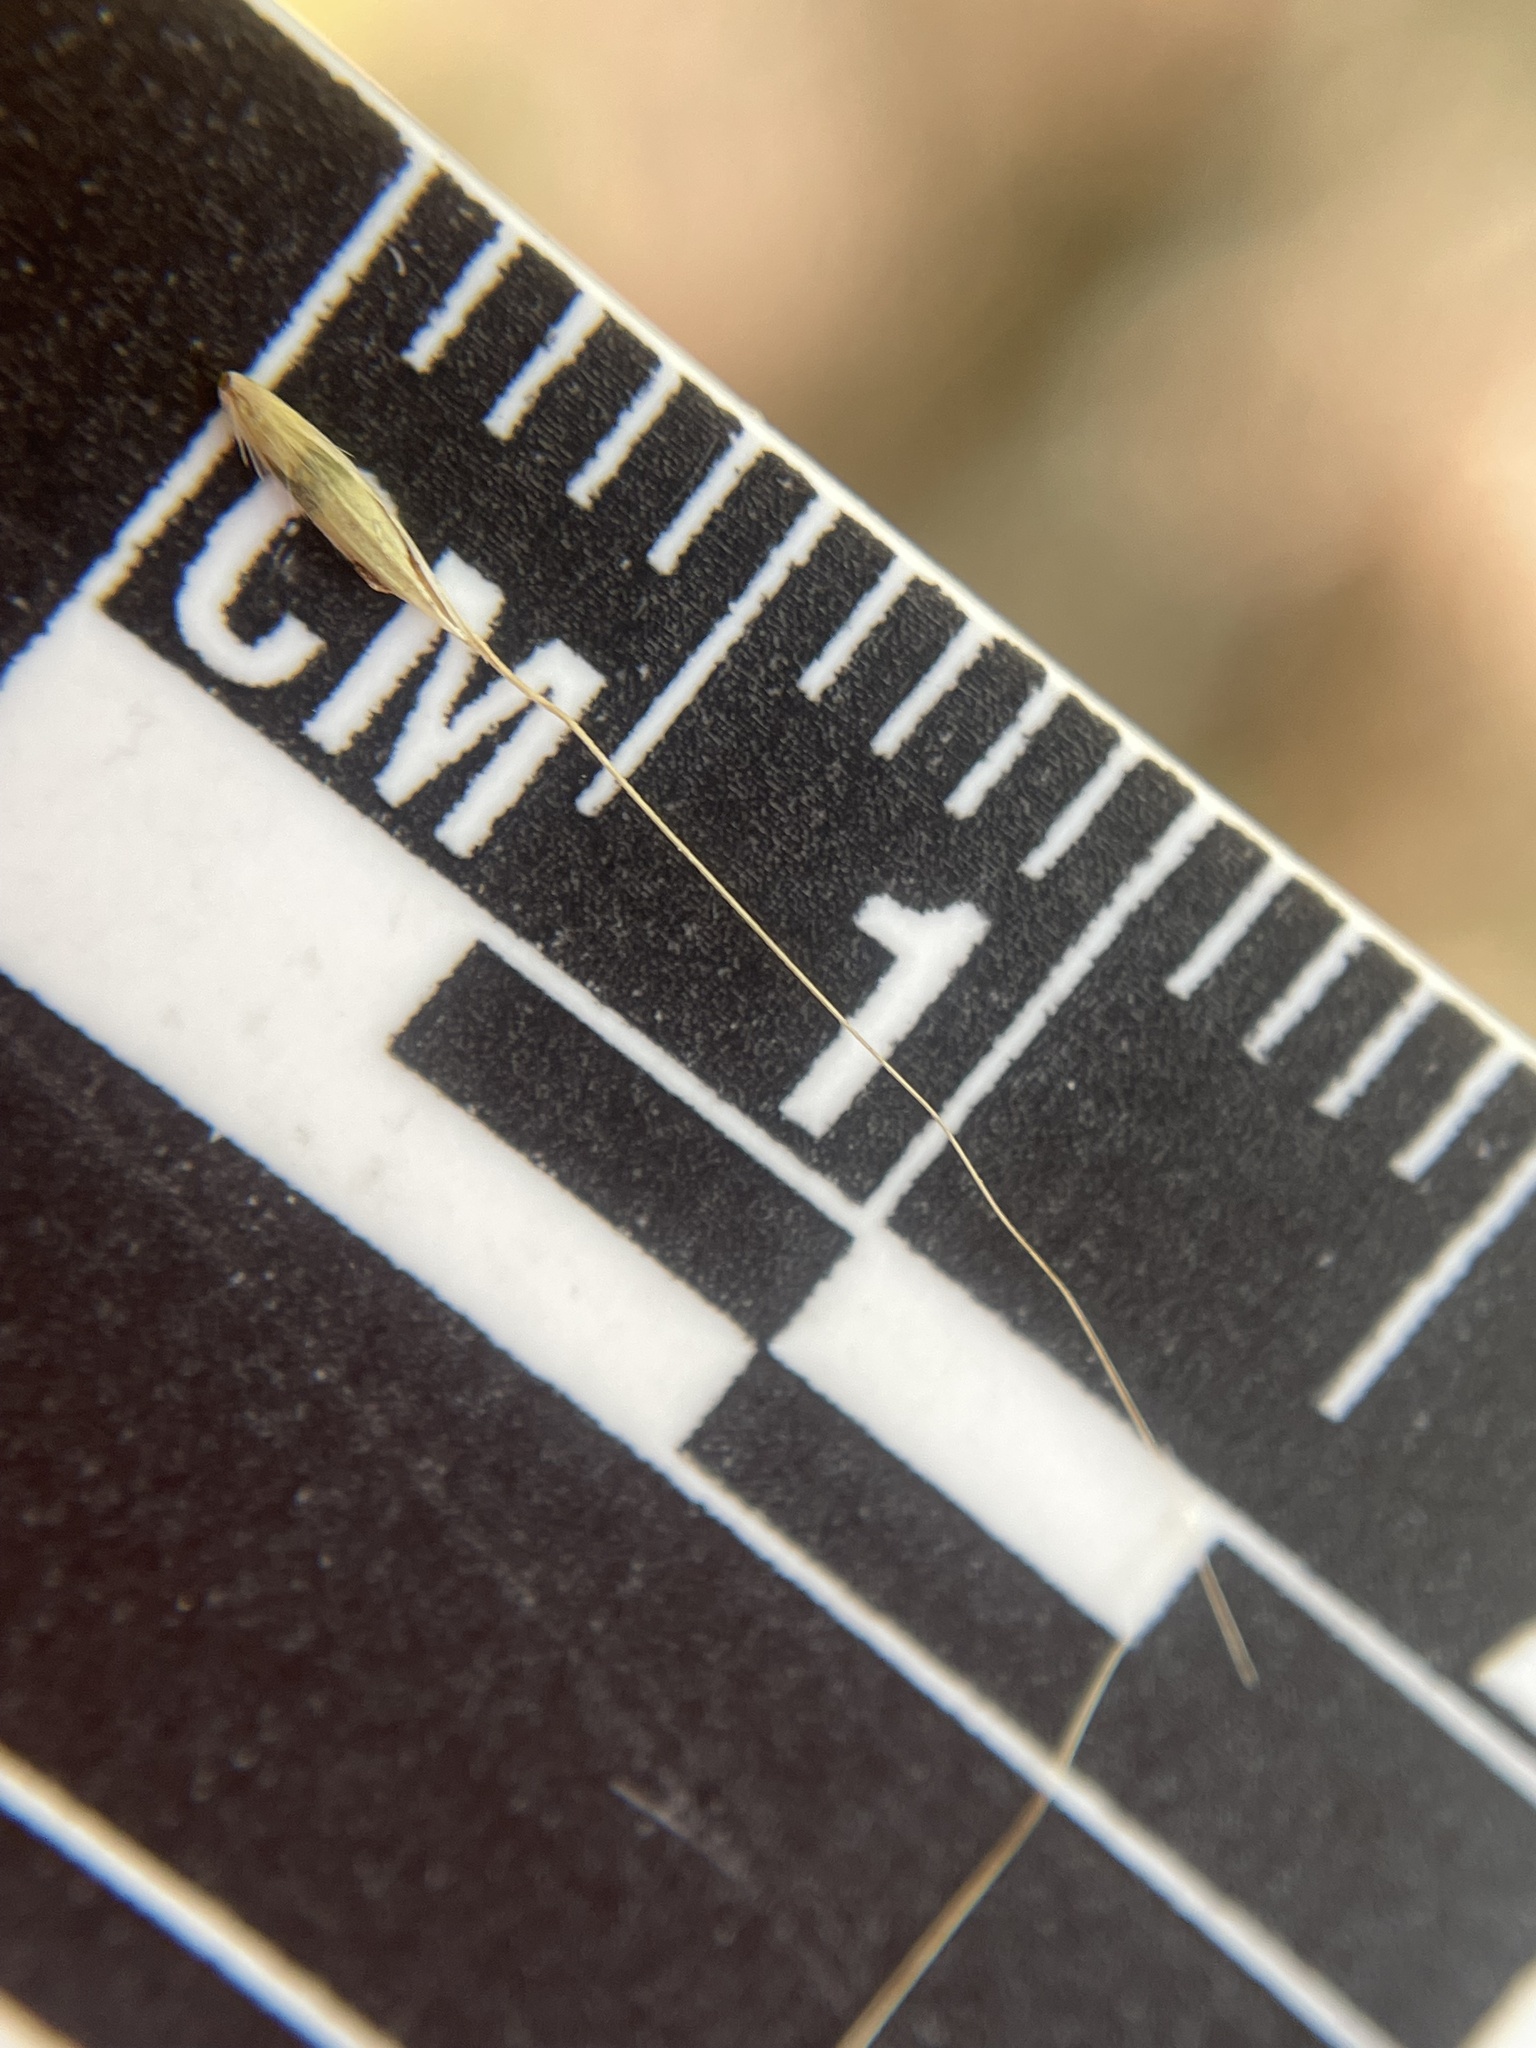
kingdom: Plantae
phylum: Tracheophyta
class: Liliopsida
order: Poales
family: Poaceae
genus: Muhlenbergia
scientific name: Muhlenbergia tenuiflora
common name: Slender muhly
